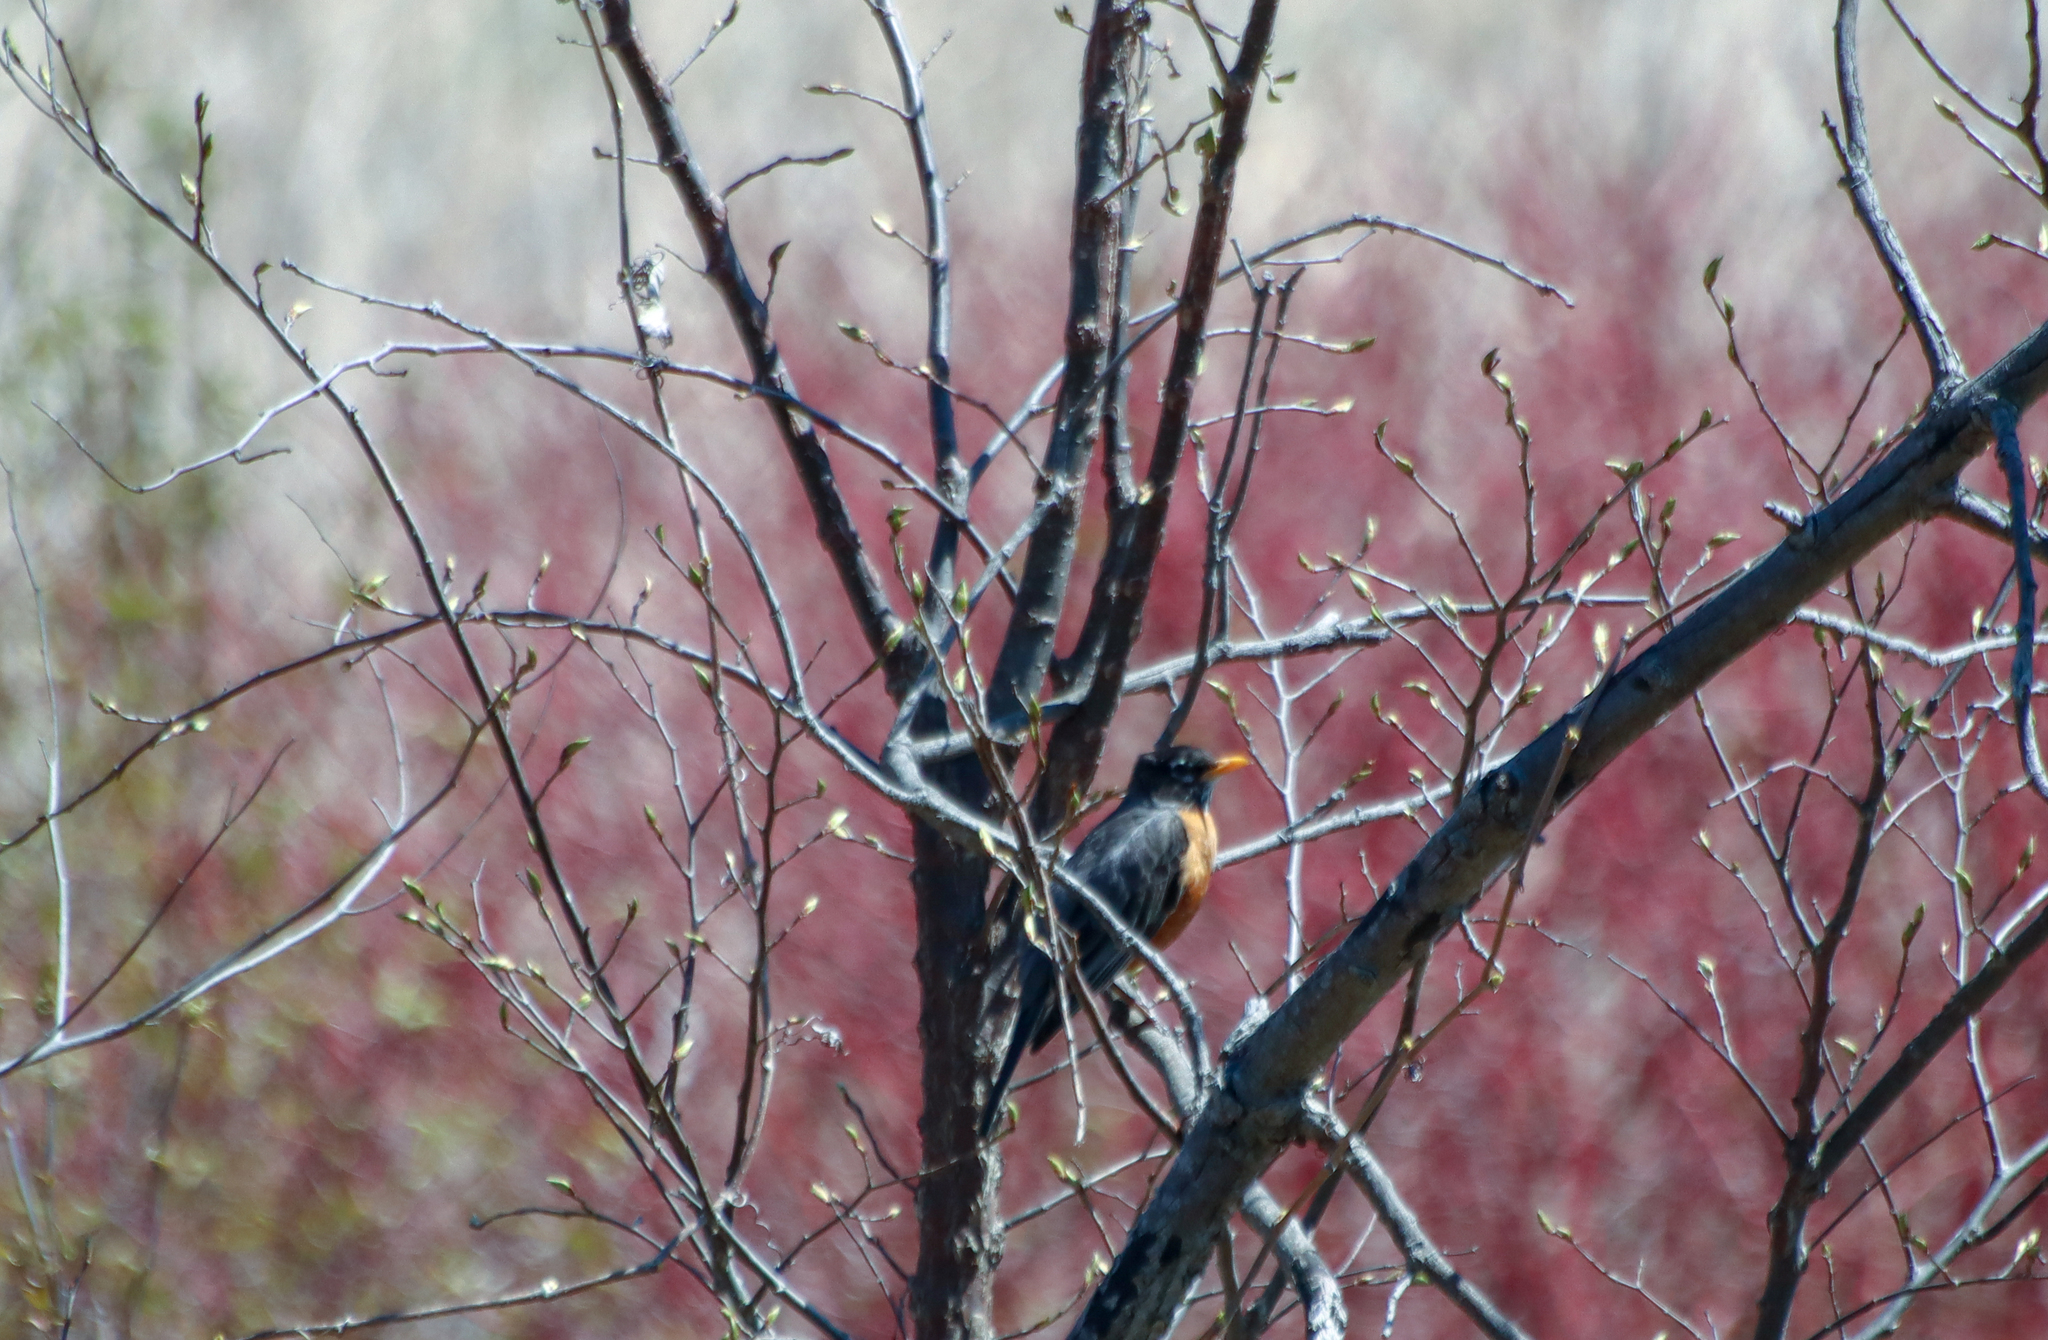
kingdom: Animalia
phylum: Chordata
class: Aves
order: Passeriformes
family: Turdidae
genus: Turdus
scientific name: Turdus migratorius
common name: American robin
